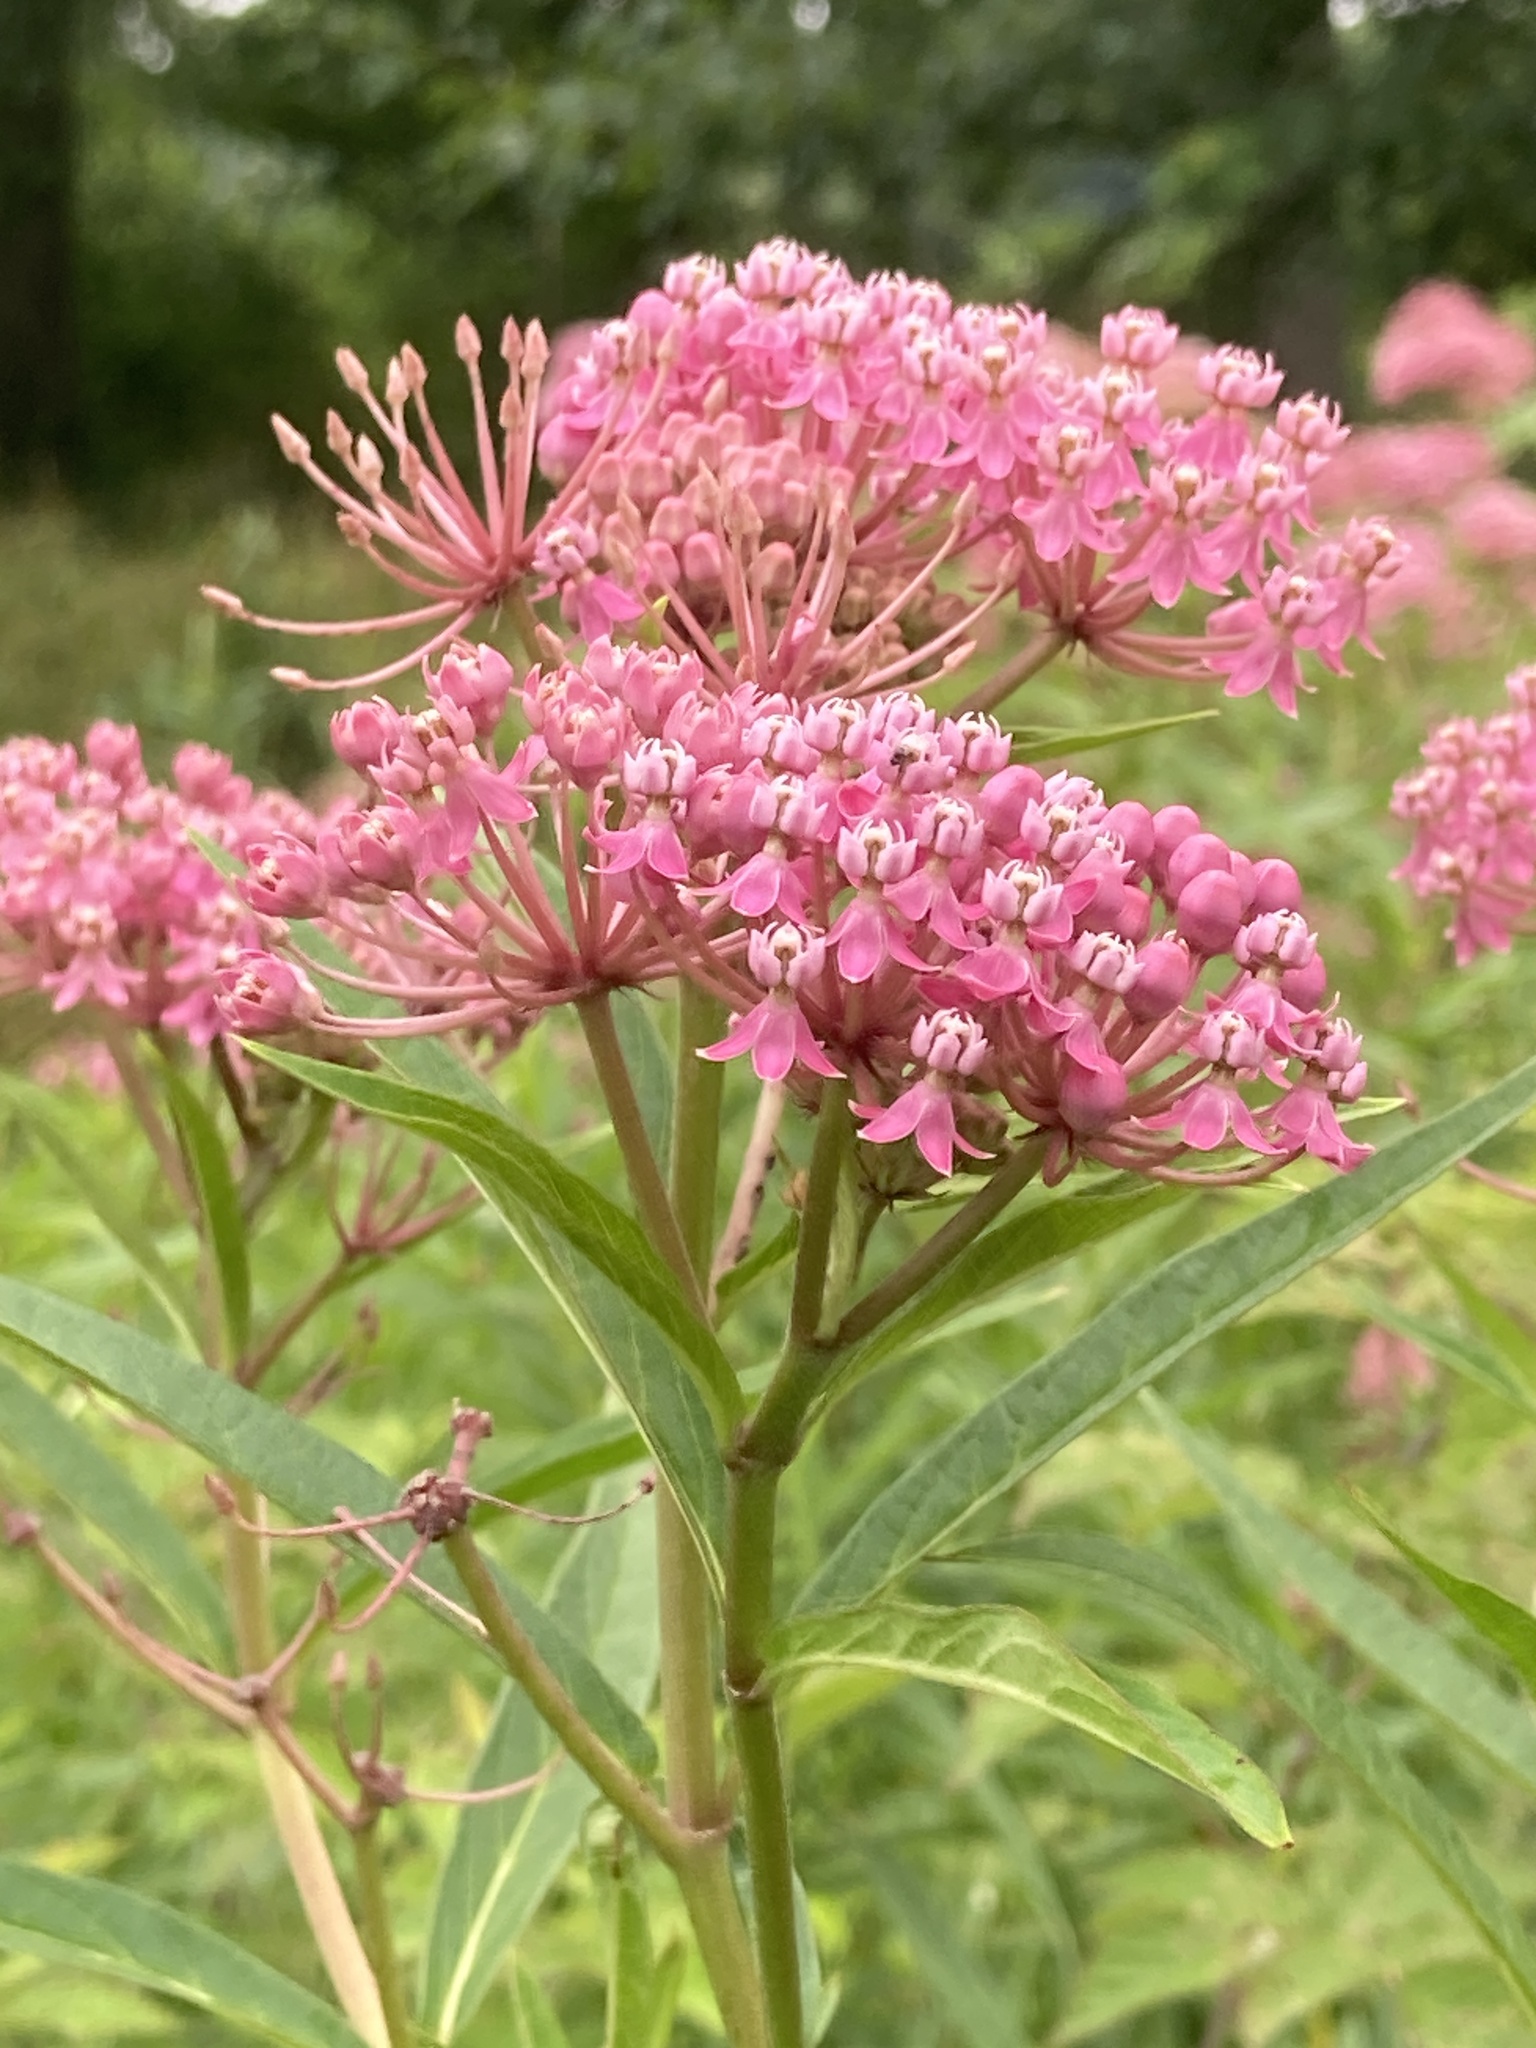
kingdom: Plantae
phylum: Tracheophyta
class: Magnoliopsida
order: Gentianales
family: Apocynaceae
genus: Asclepias
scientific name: Asclepias incarnata
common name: Swamp milkweed
